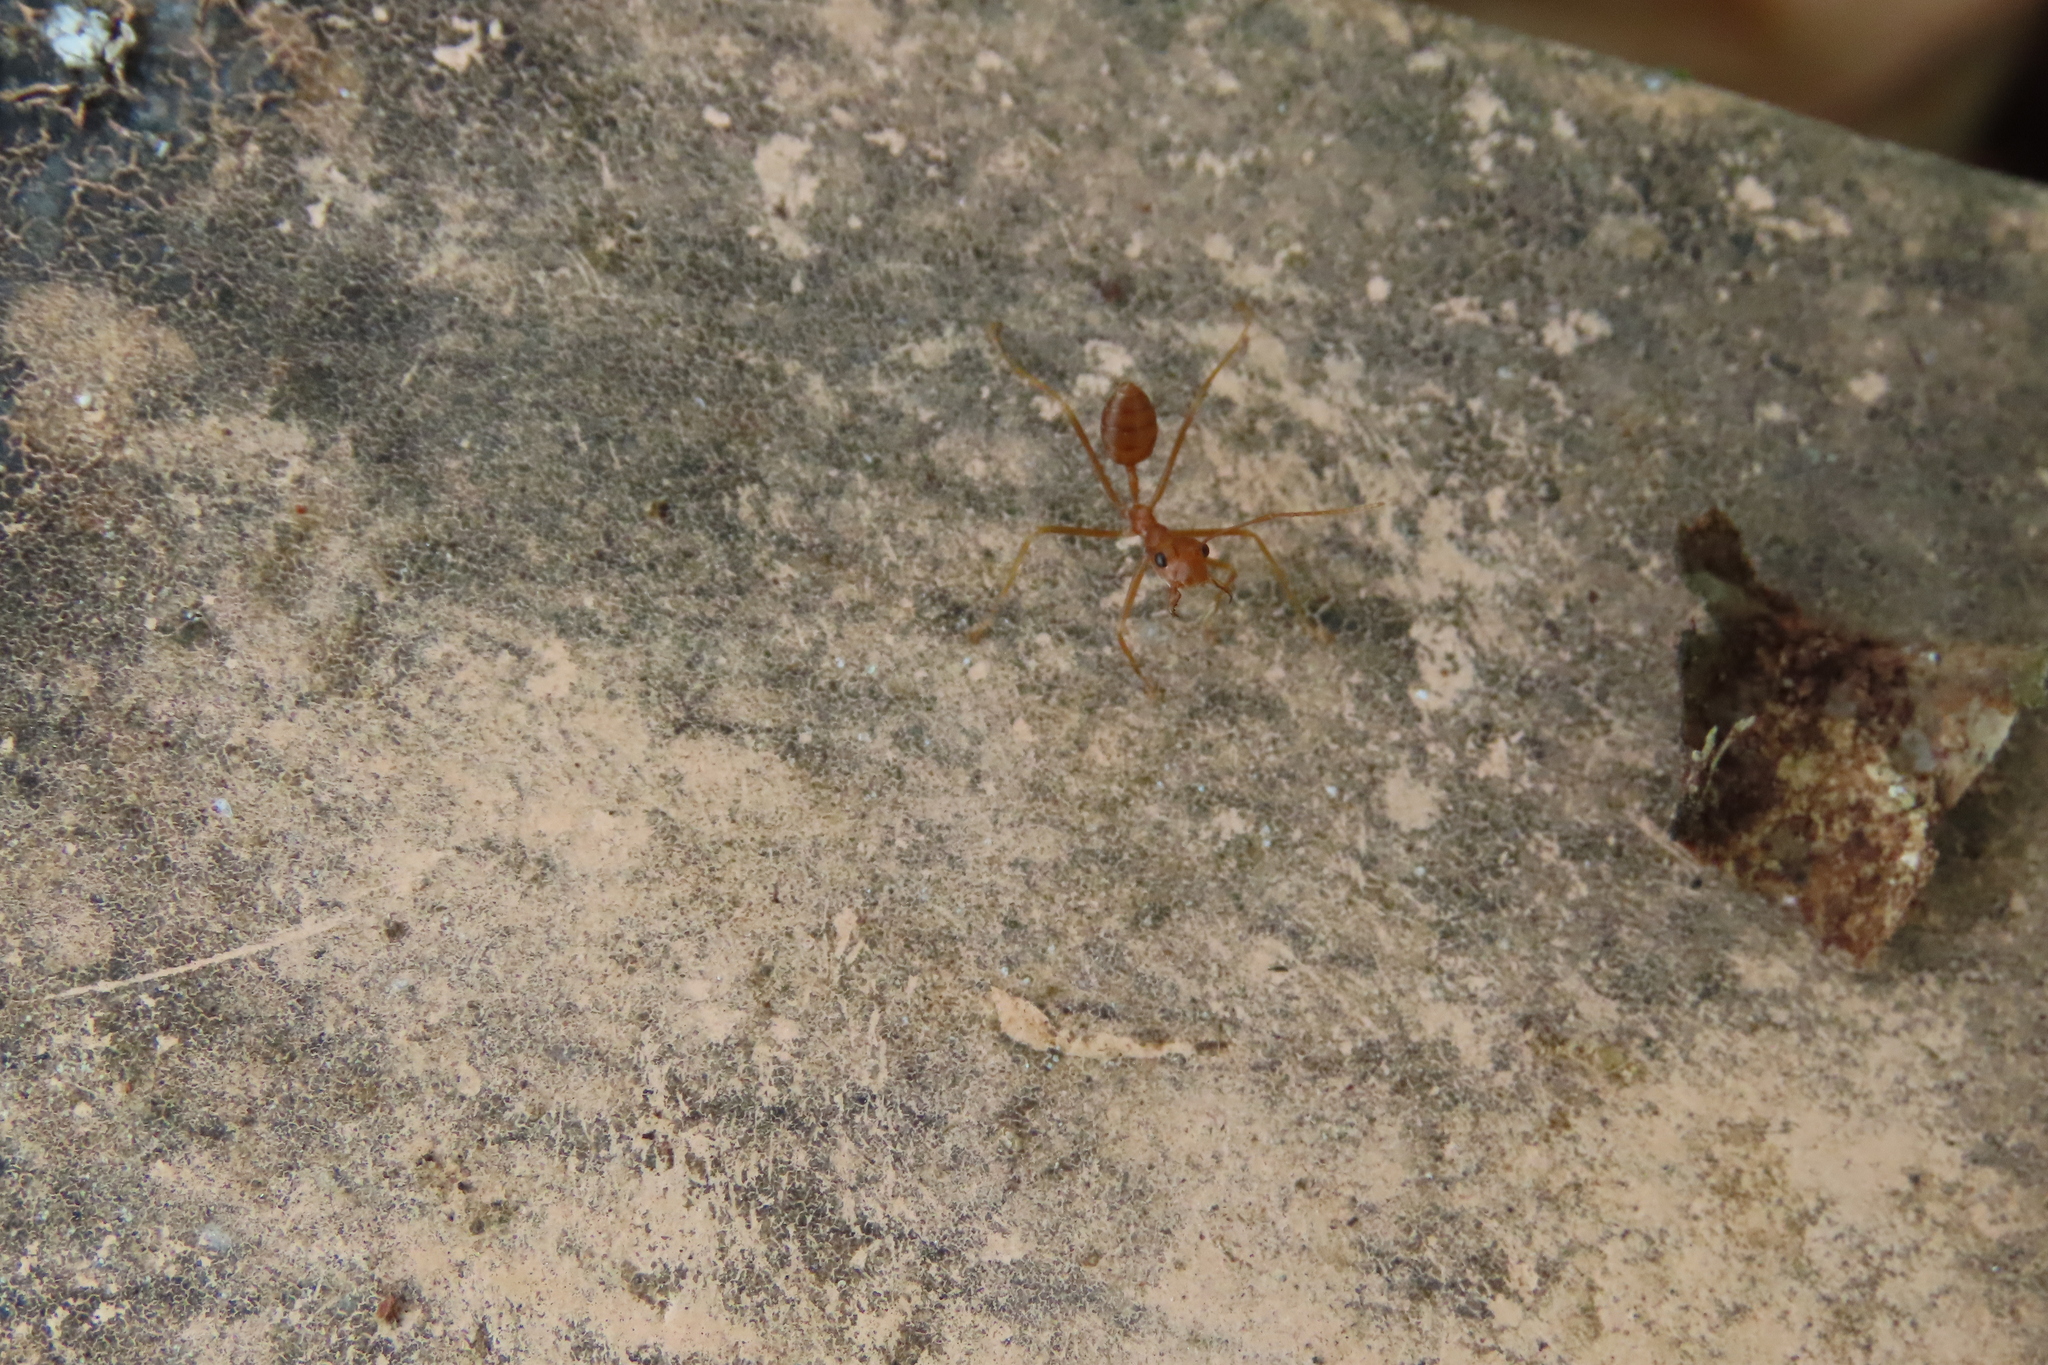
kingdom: Animalia
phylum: Arthropoda
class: Insecta
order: Hymenoptera
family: Formicidae
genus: Oecophylla
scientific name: Oecophylla smaragdina
